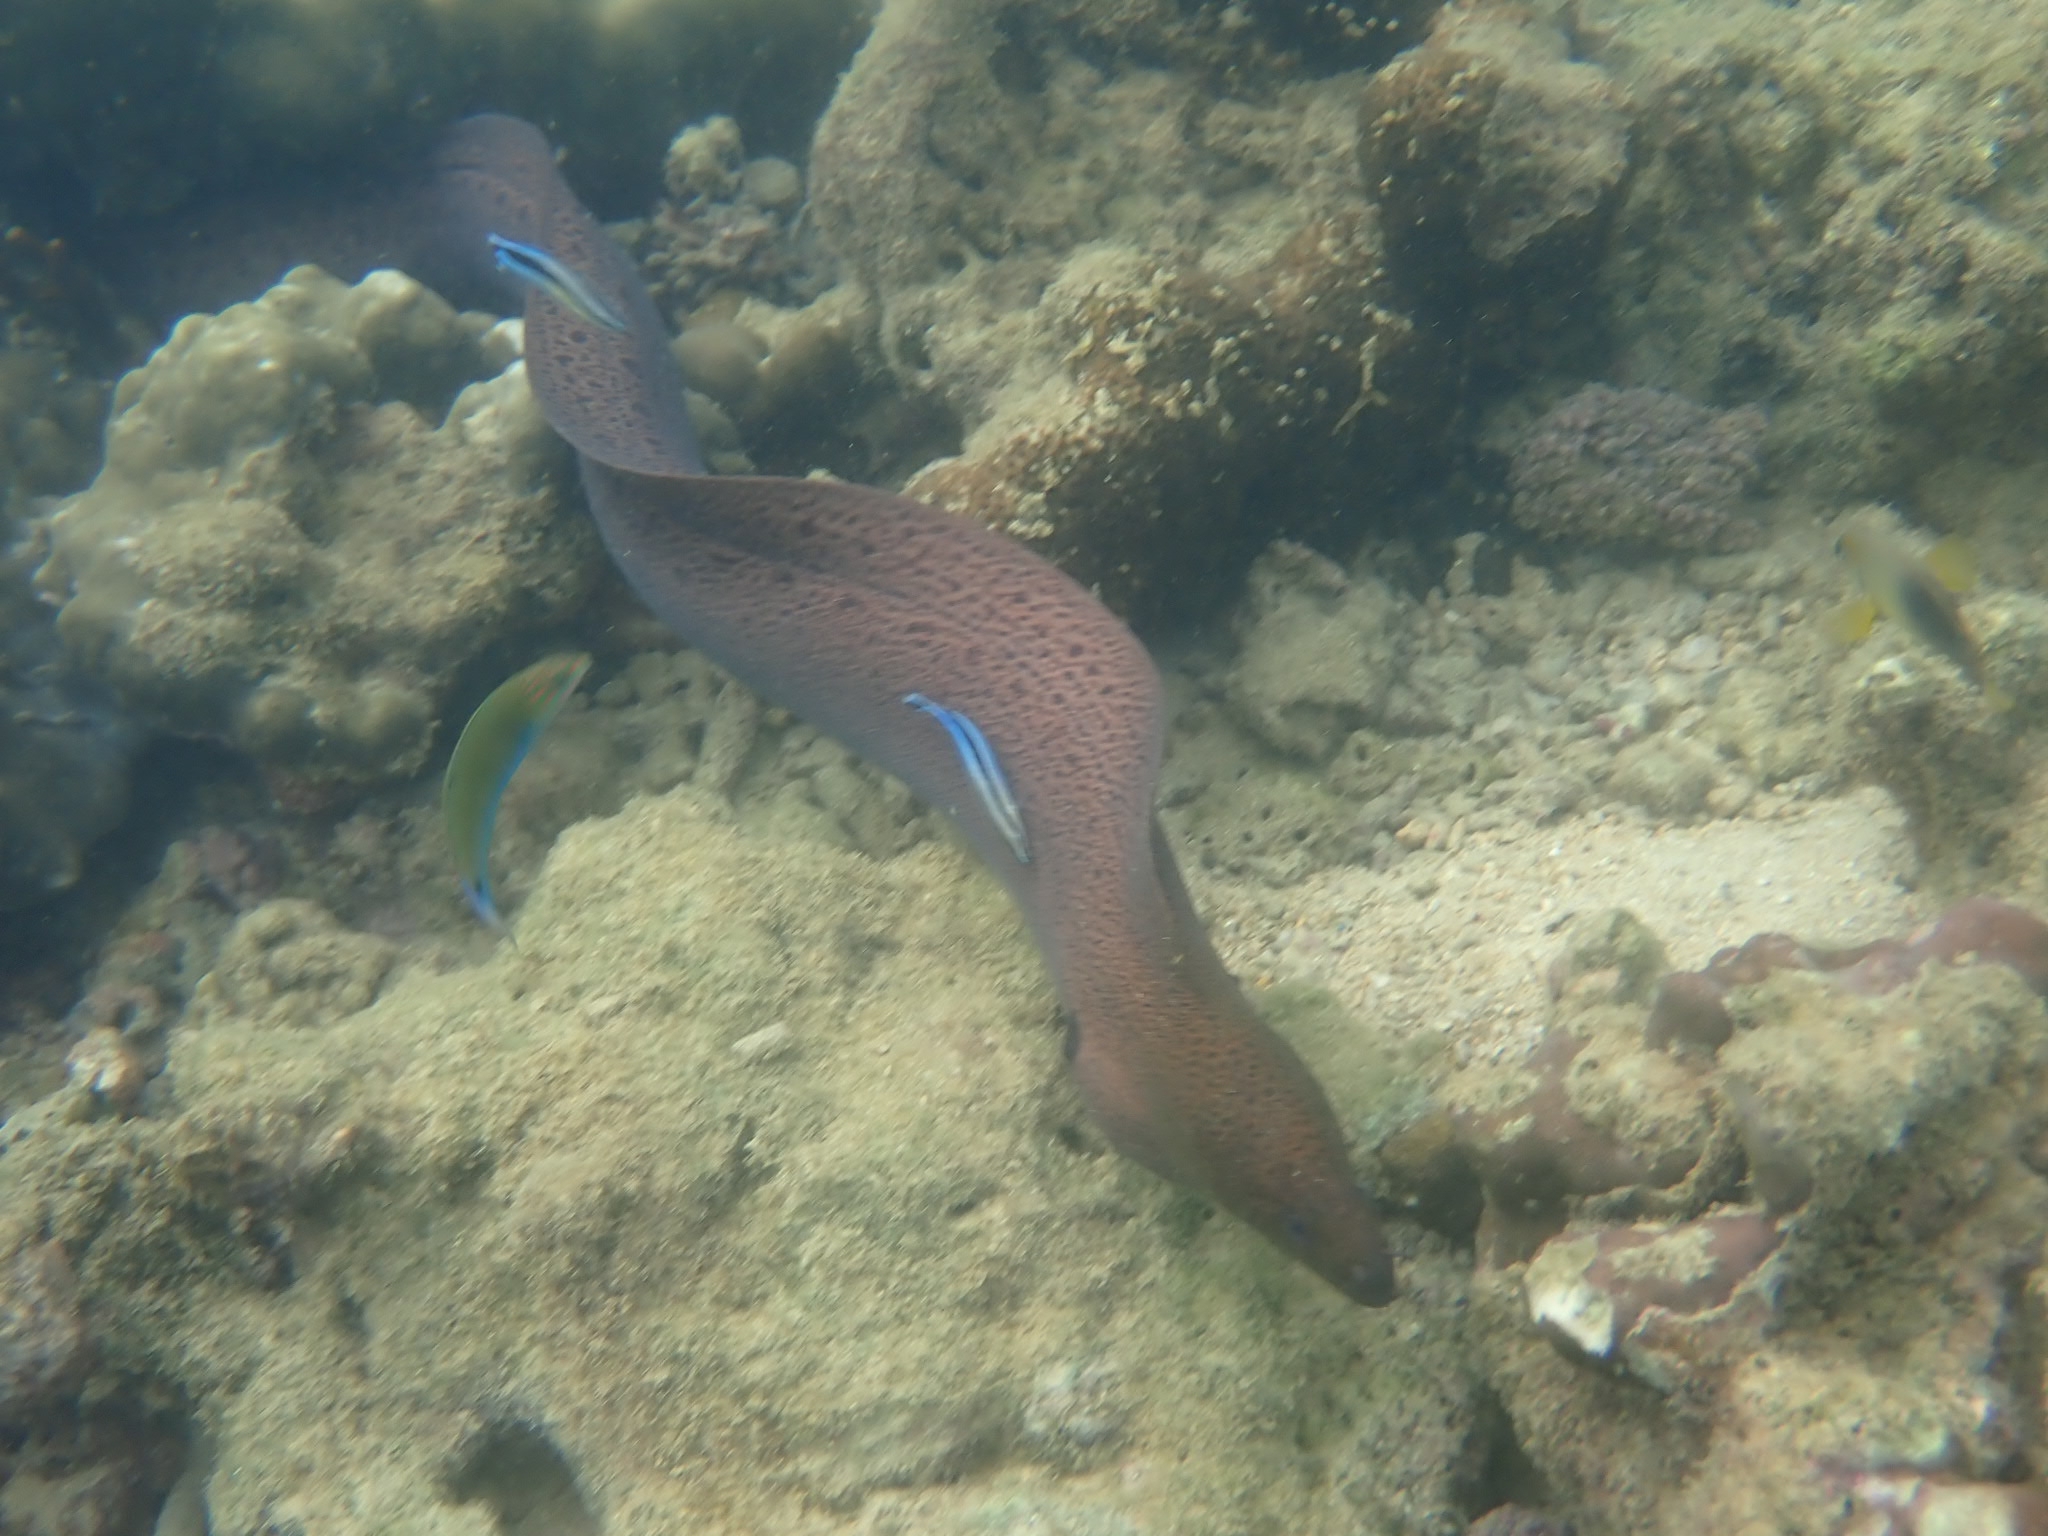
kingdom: Animalia
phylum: Chordata
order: Anguilliformes
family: Muraenidae
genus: Gymnothorax
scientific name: Gymnothorax javanicus
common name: Giant moray
